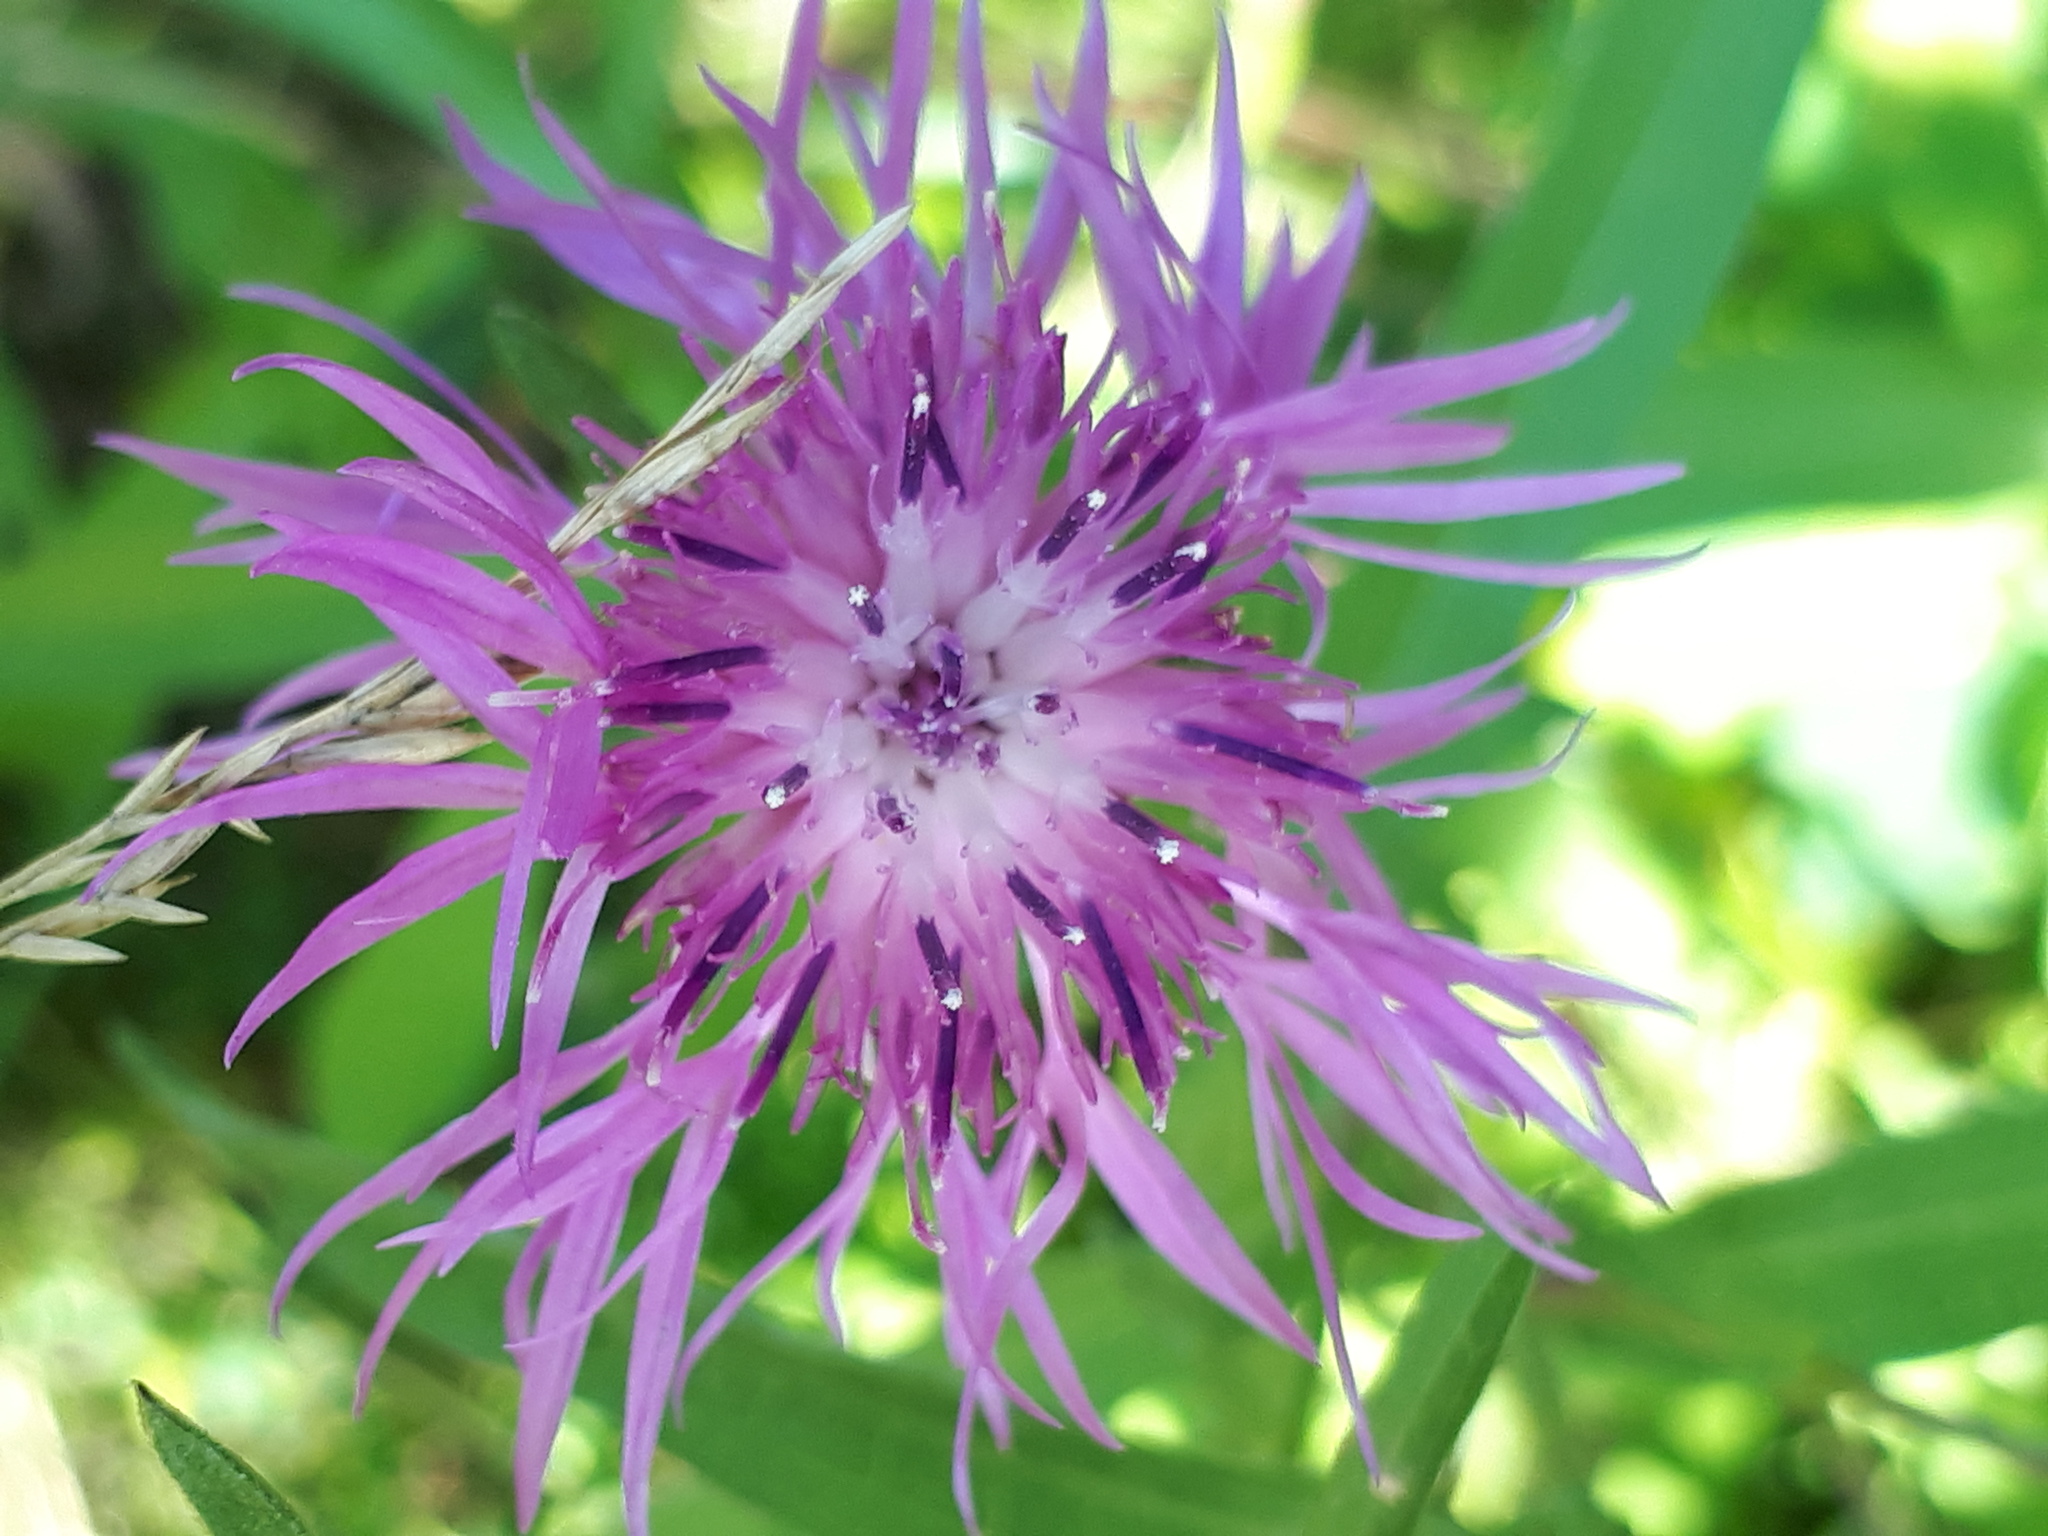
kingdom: Plantae
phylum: Tracheophyta
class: Magnoliopsida
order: Asterales
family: Asteraceae
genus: Centaurea
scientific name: Centaurea jacea
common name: Brown knapweed
